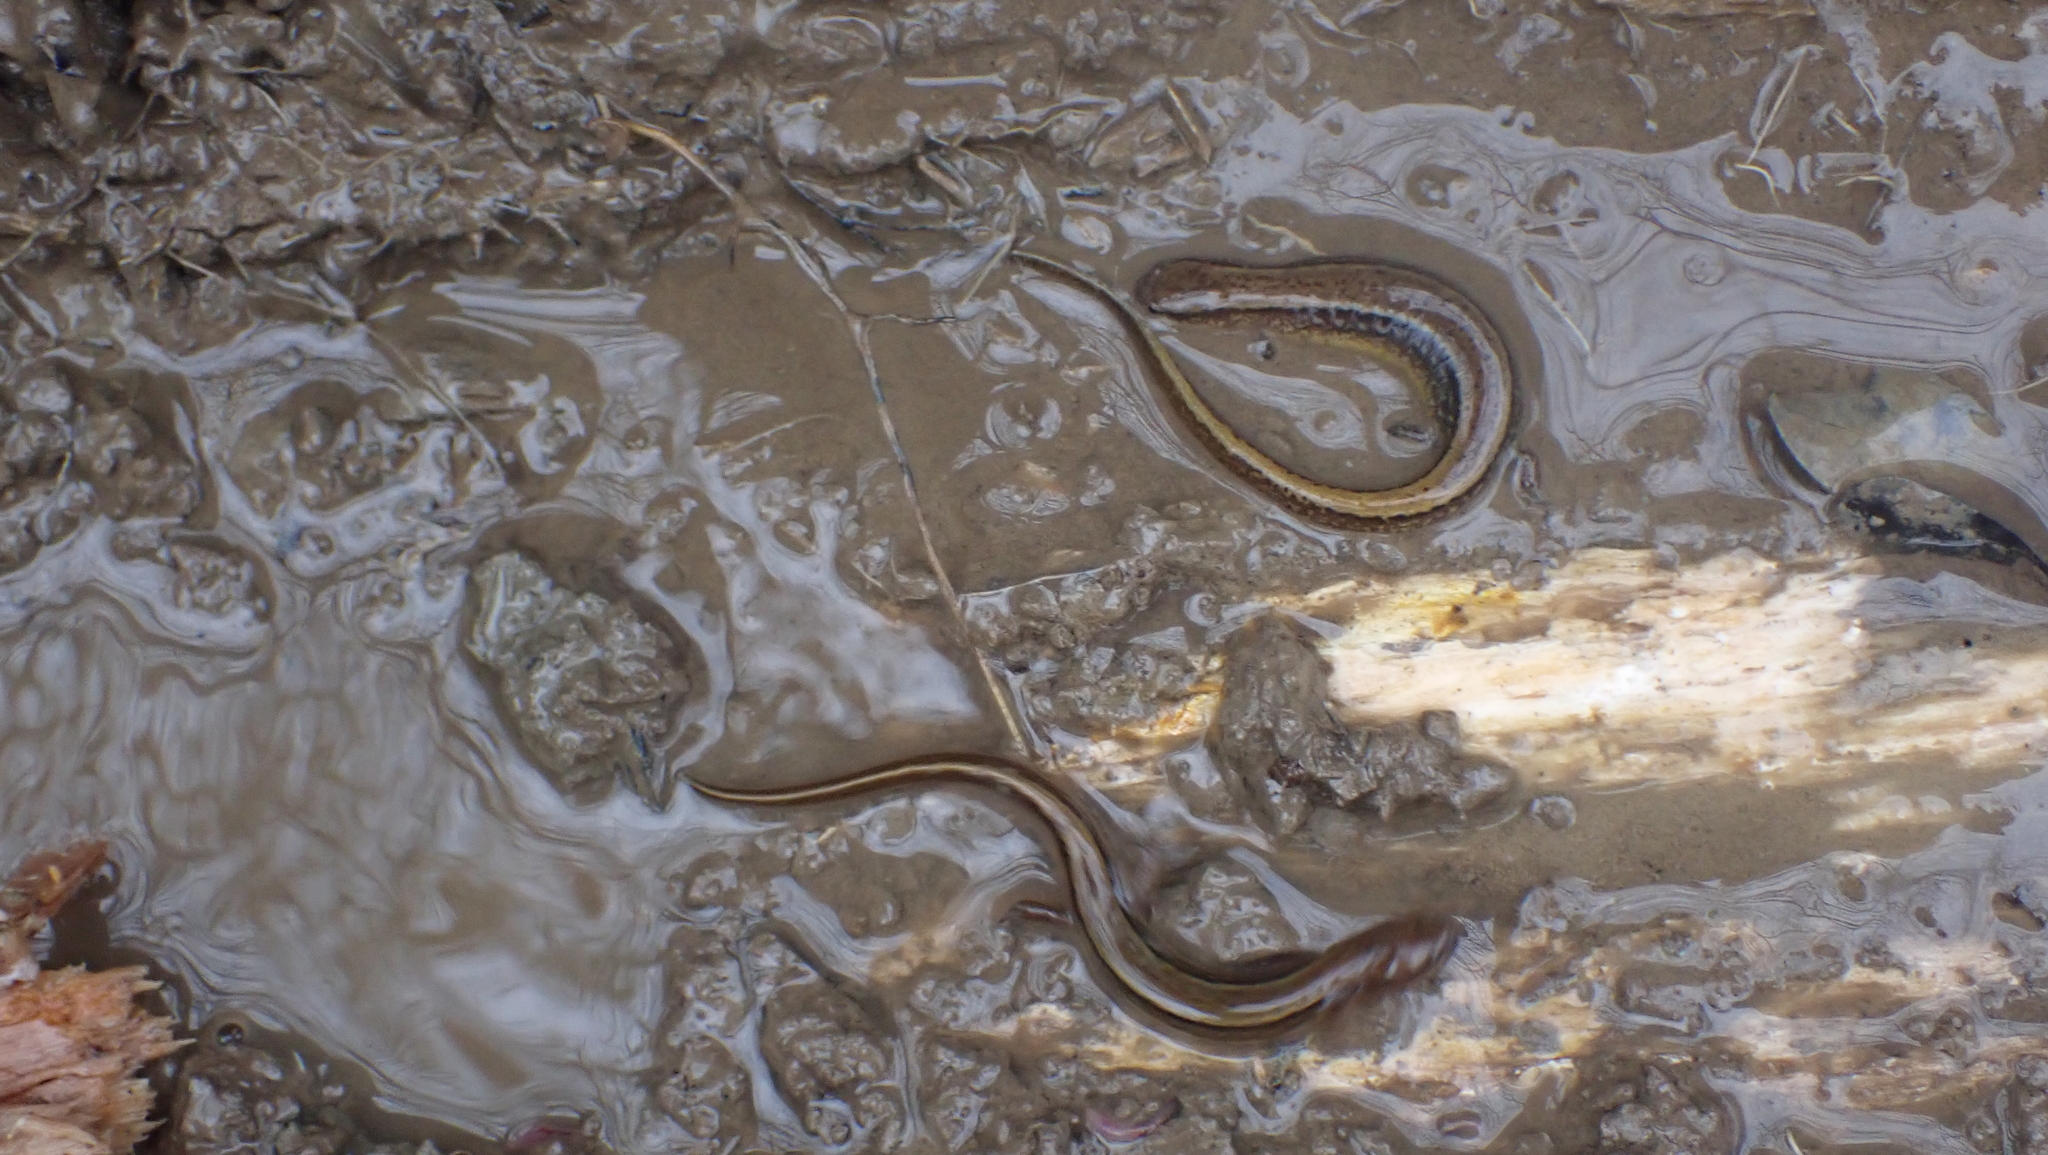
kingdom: Animalia
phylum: Chordata
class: Amphibia
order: Caudata
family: Plethodontidae
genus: Eurycea
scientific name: Eurycea cirrigera
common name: Southern two-lined salamander
